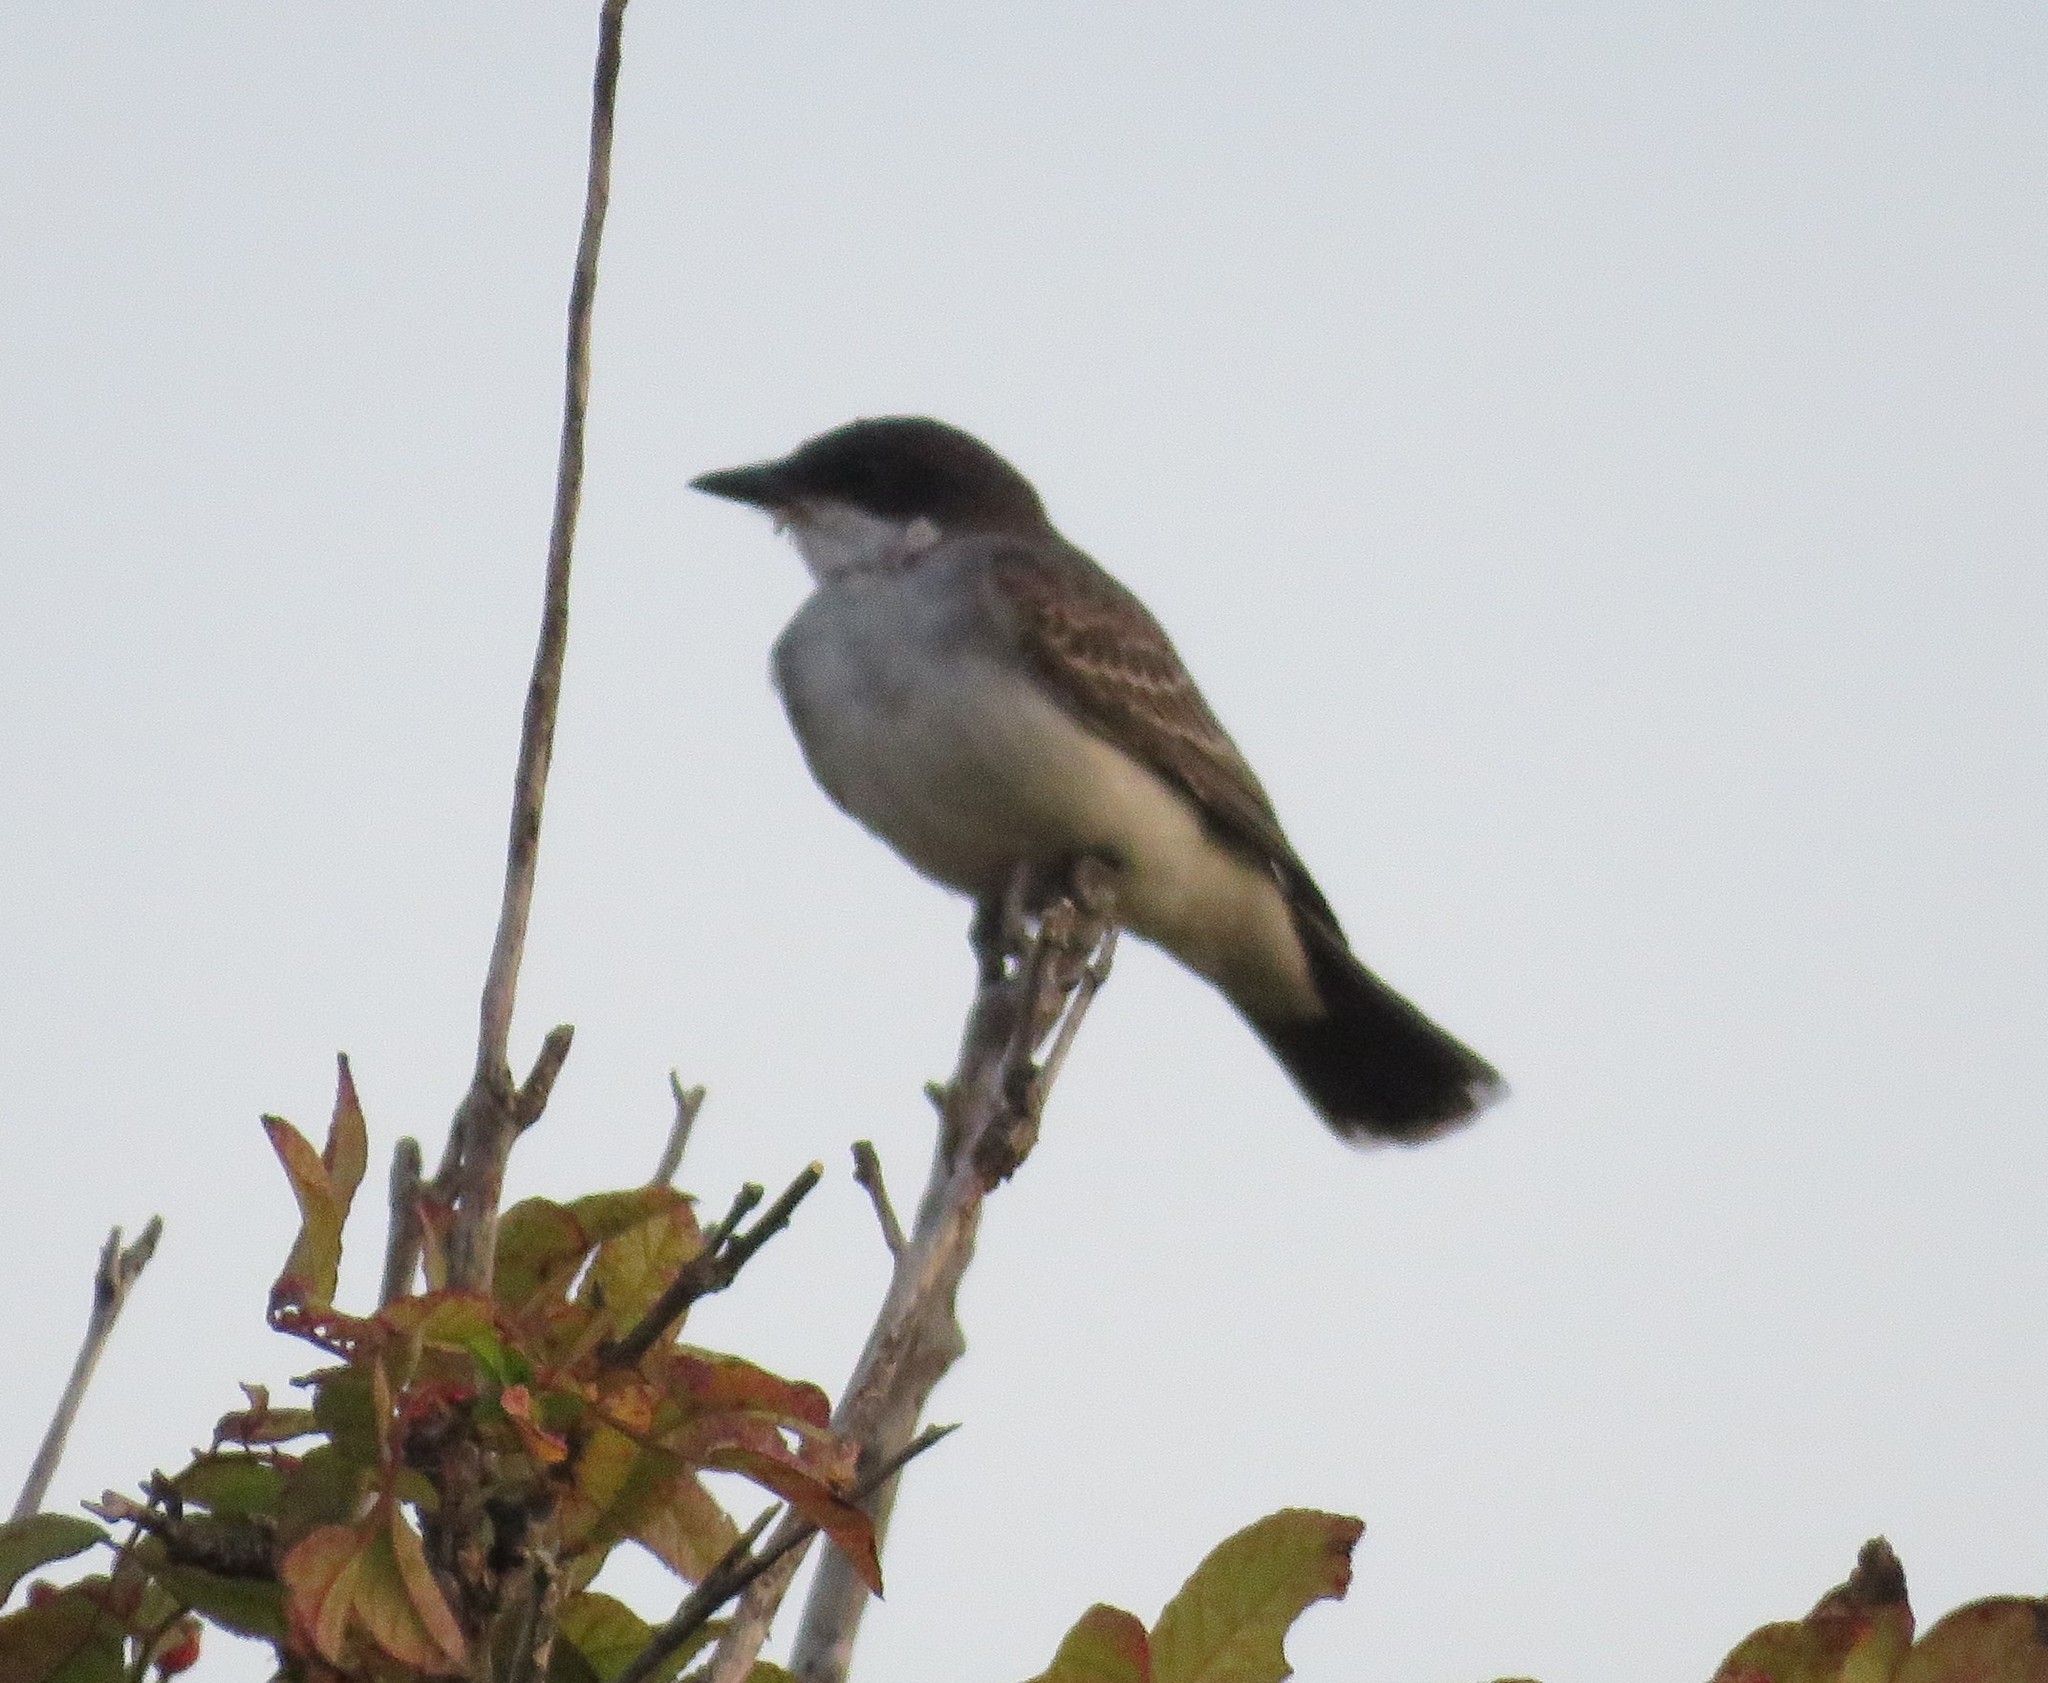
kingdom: Animalia
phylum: Chordata
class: Aves
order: Passeriformes
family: Tyrannidae
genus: Tyrannus
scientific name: Tyrannus tyrannus
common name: Eastern kingbird
